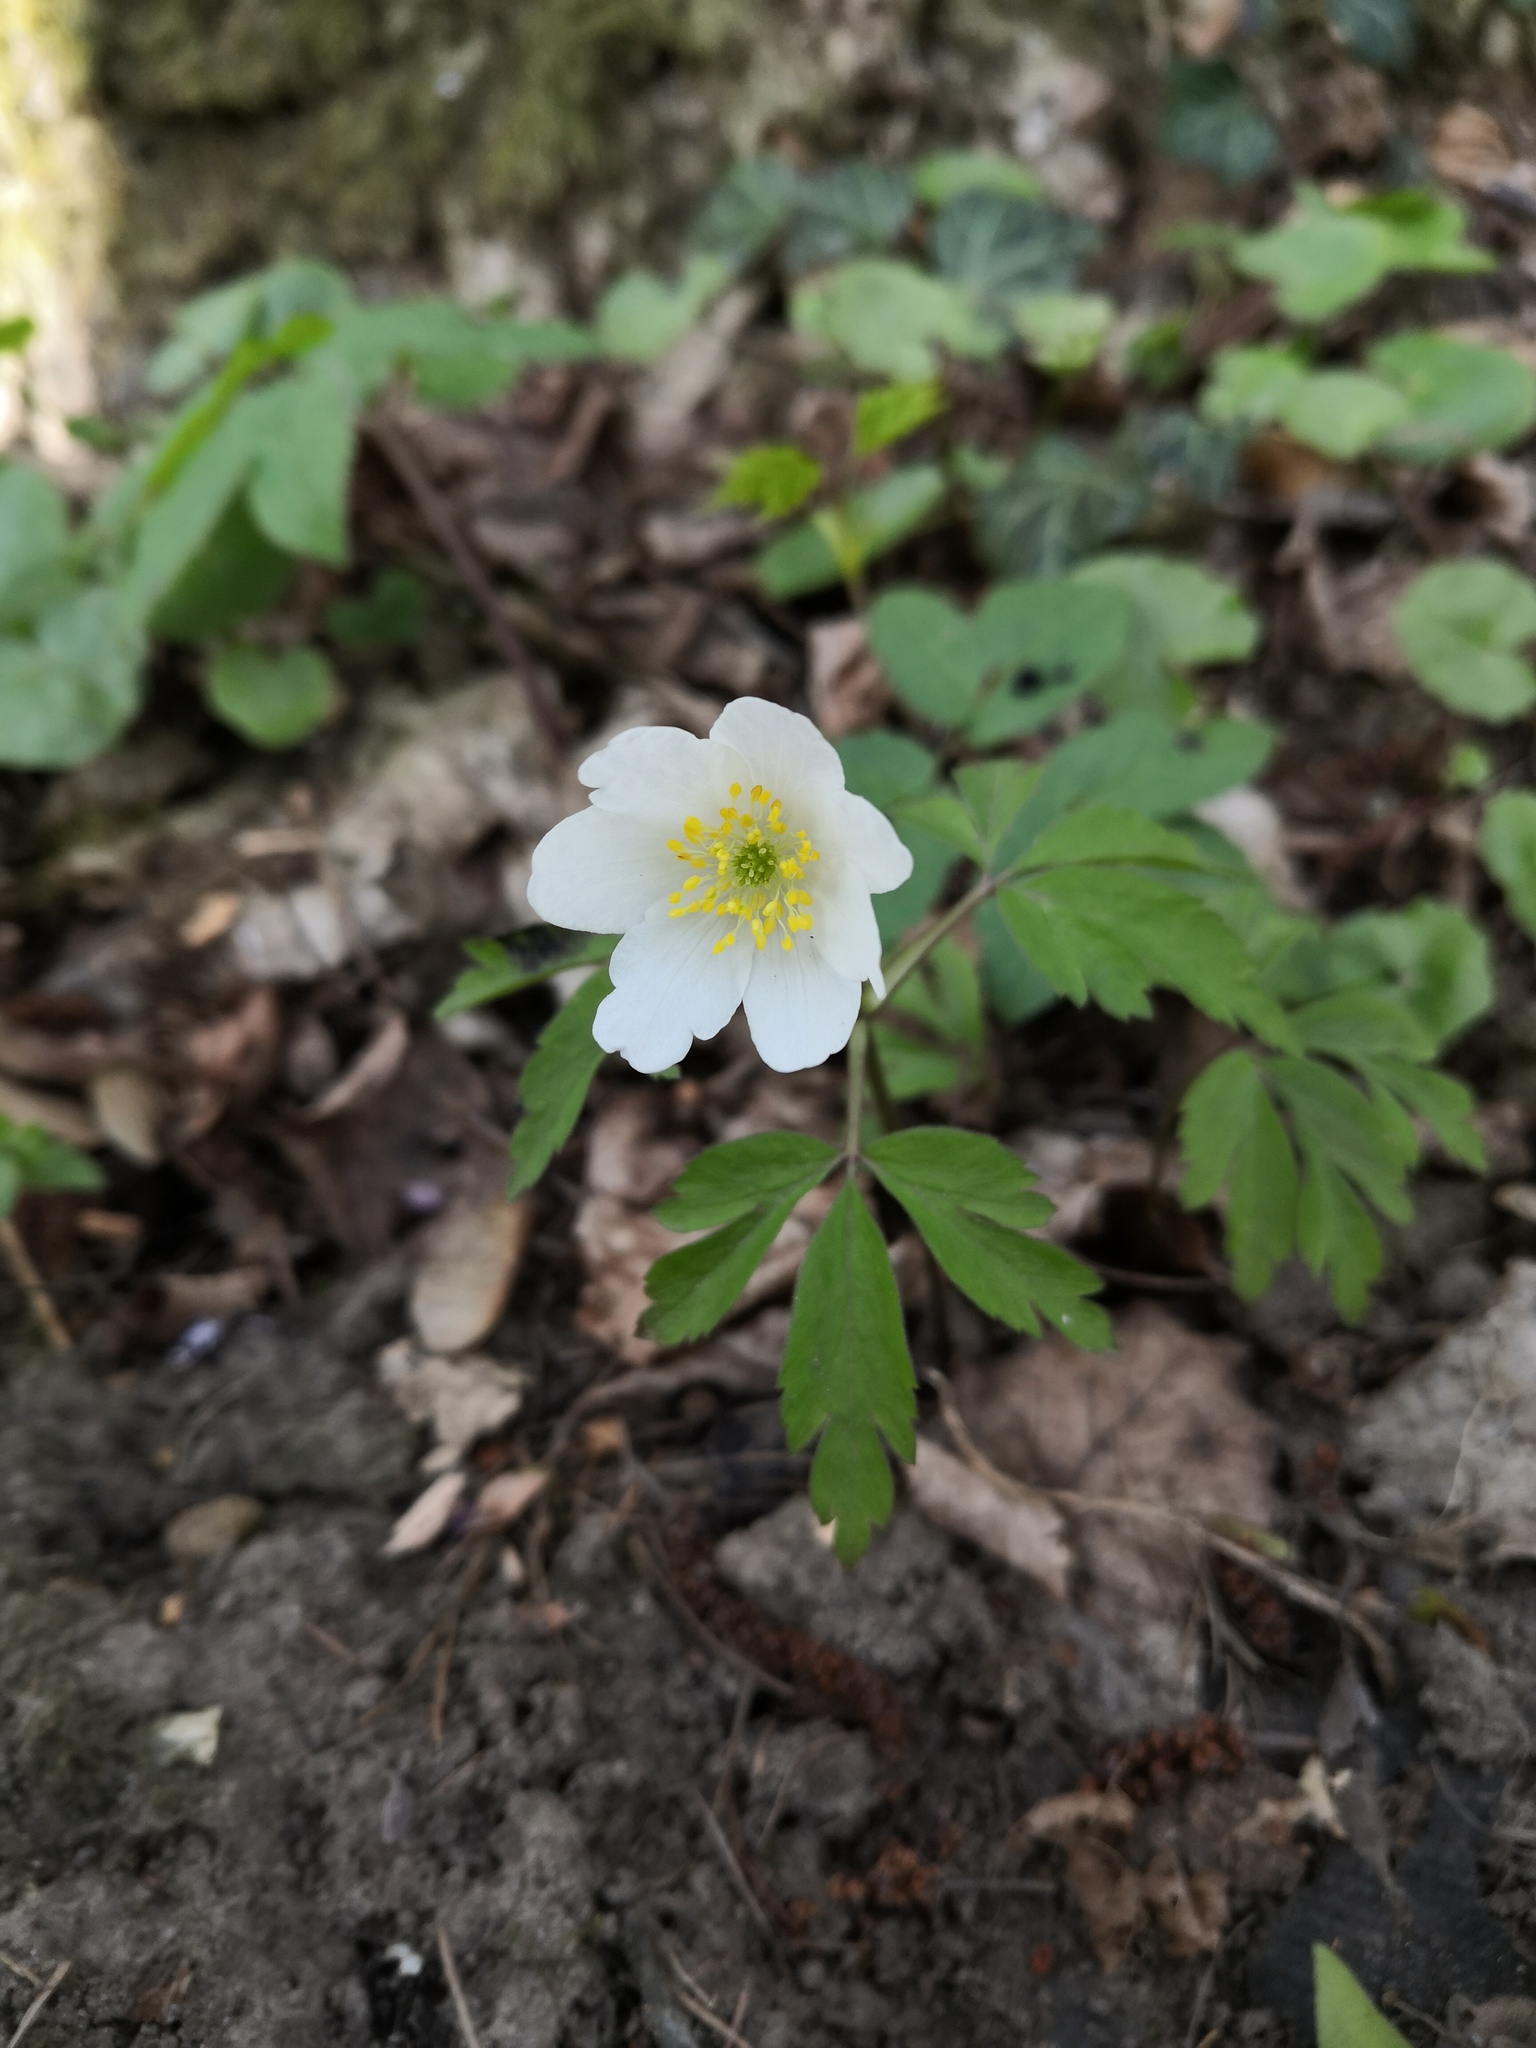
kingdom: Plantae
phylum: Tracheophyta
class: Magnoliopsida
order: Ranunculales
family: Ranunculaceae
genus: Anemone
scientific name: Anemone nemorosa
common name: Wood anemone
